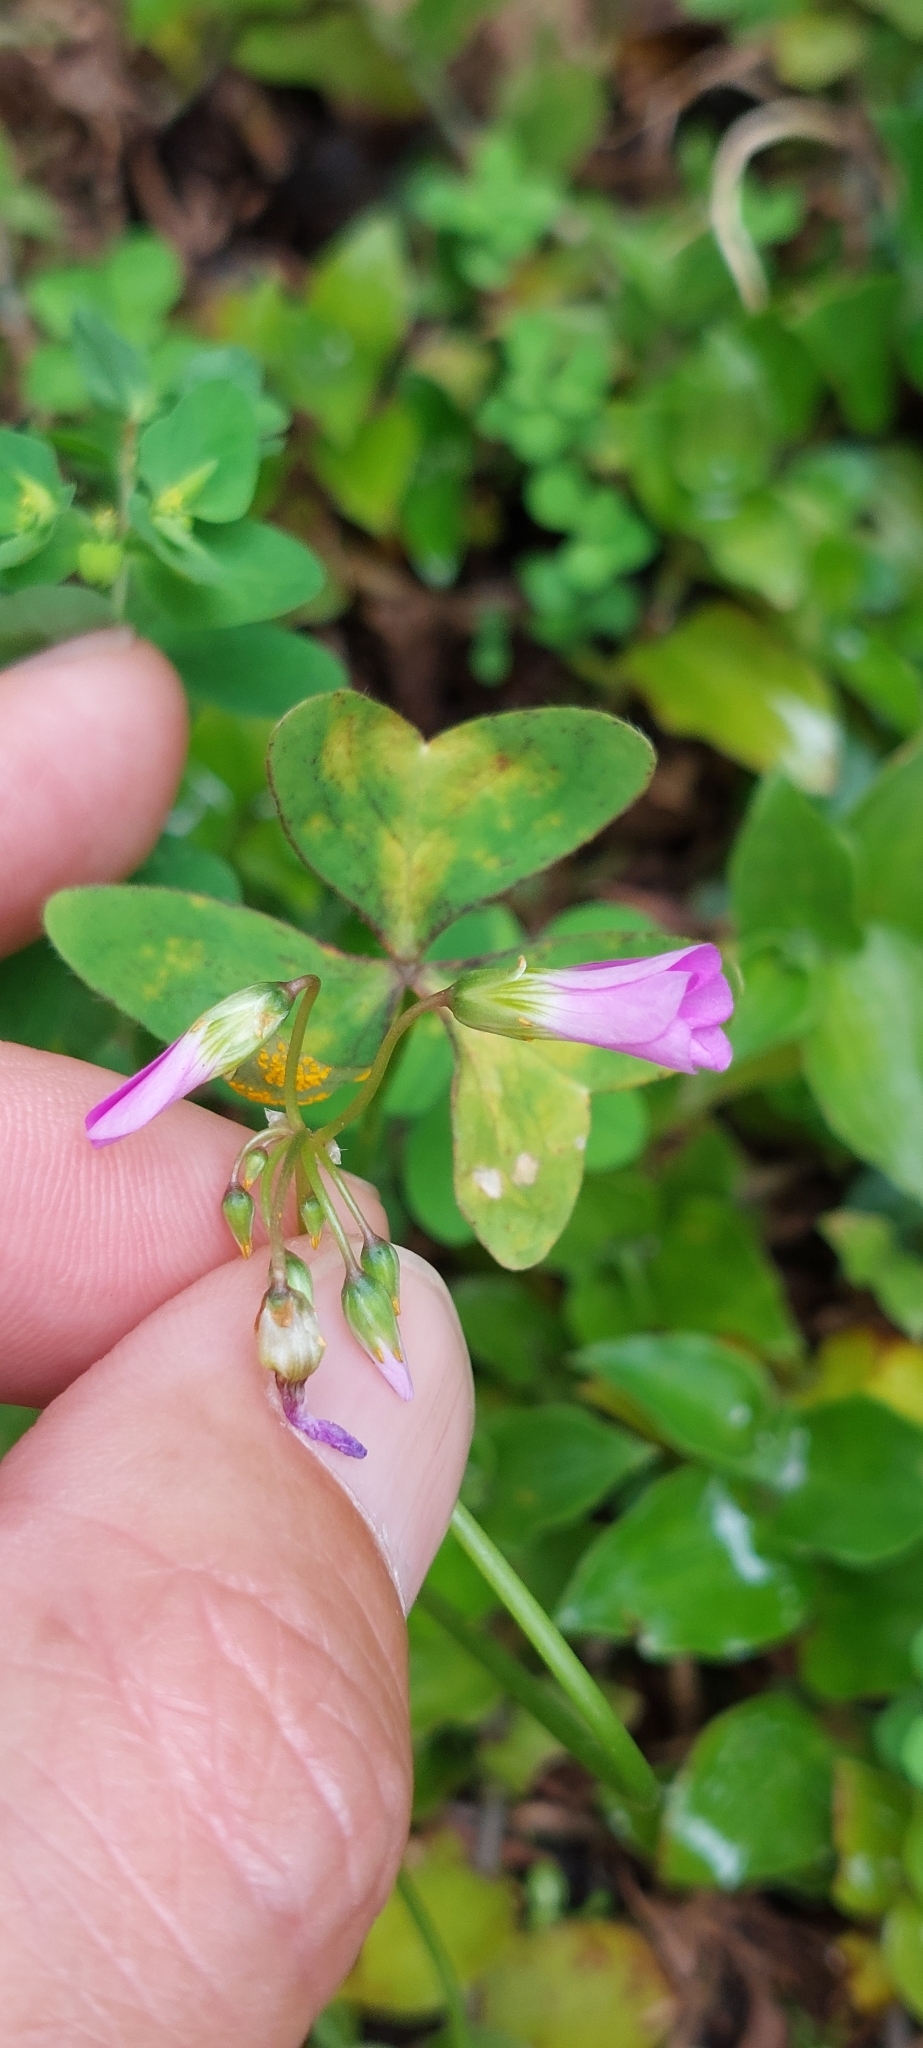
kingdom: Plantae
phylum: Tracheophyta
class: Magnoliopsida
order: Oxalidales
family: Oxalidaceae
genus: Oxalis
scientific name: Oxalis latifolia
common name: Garden pink-sorrel
